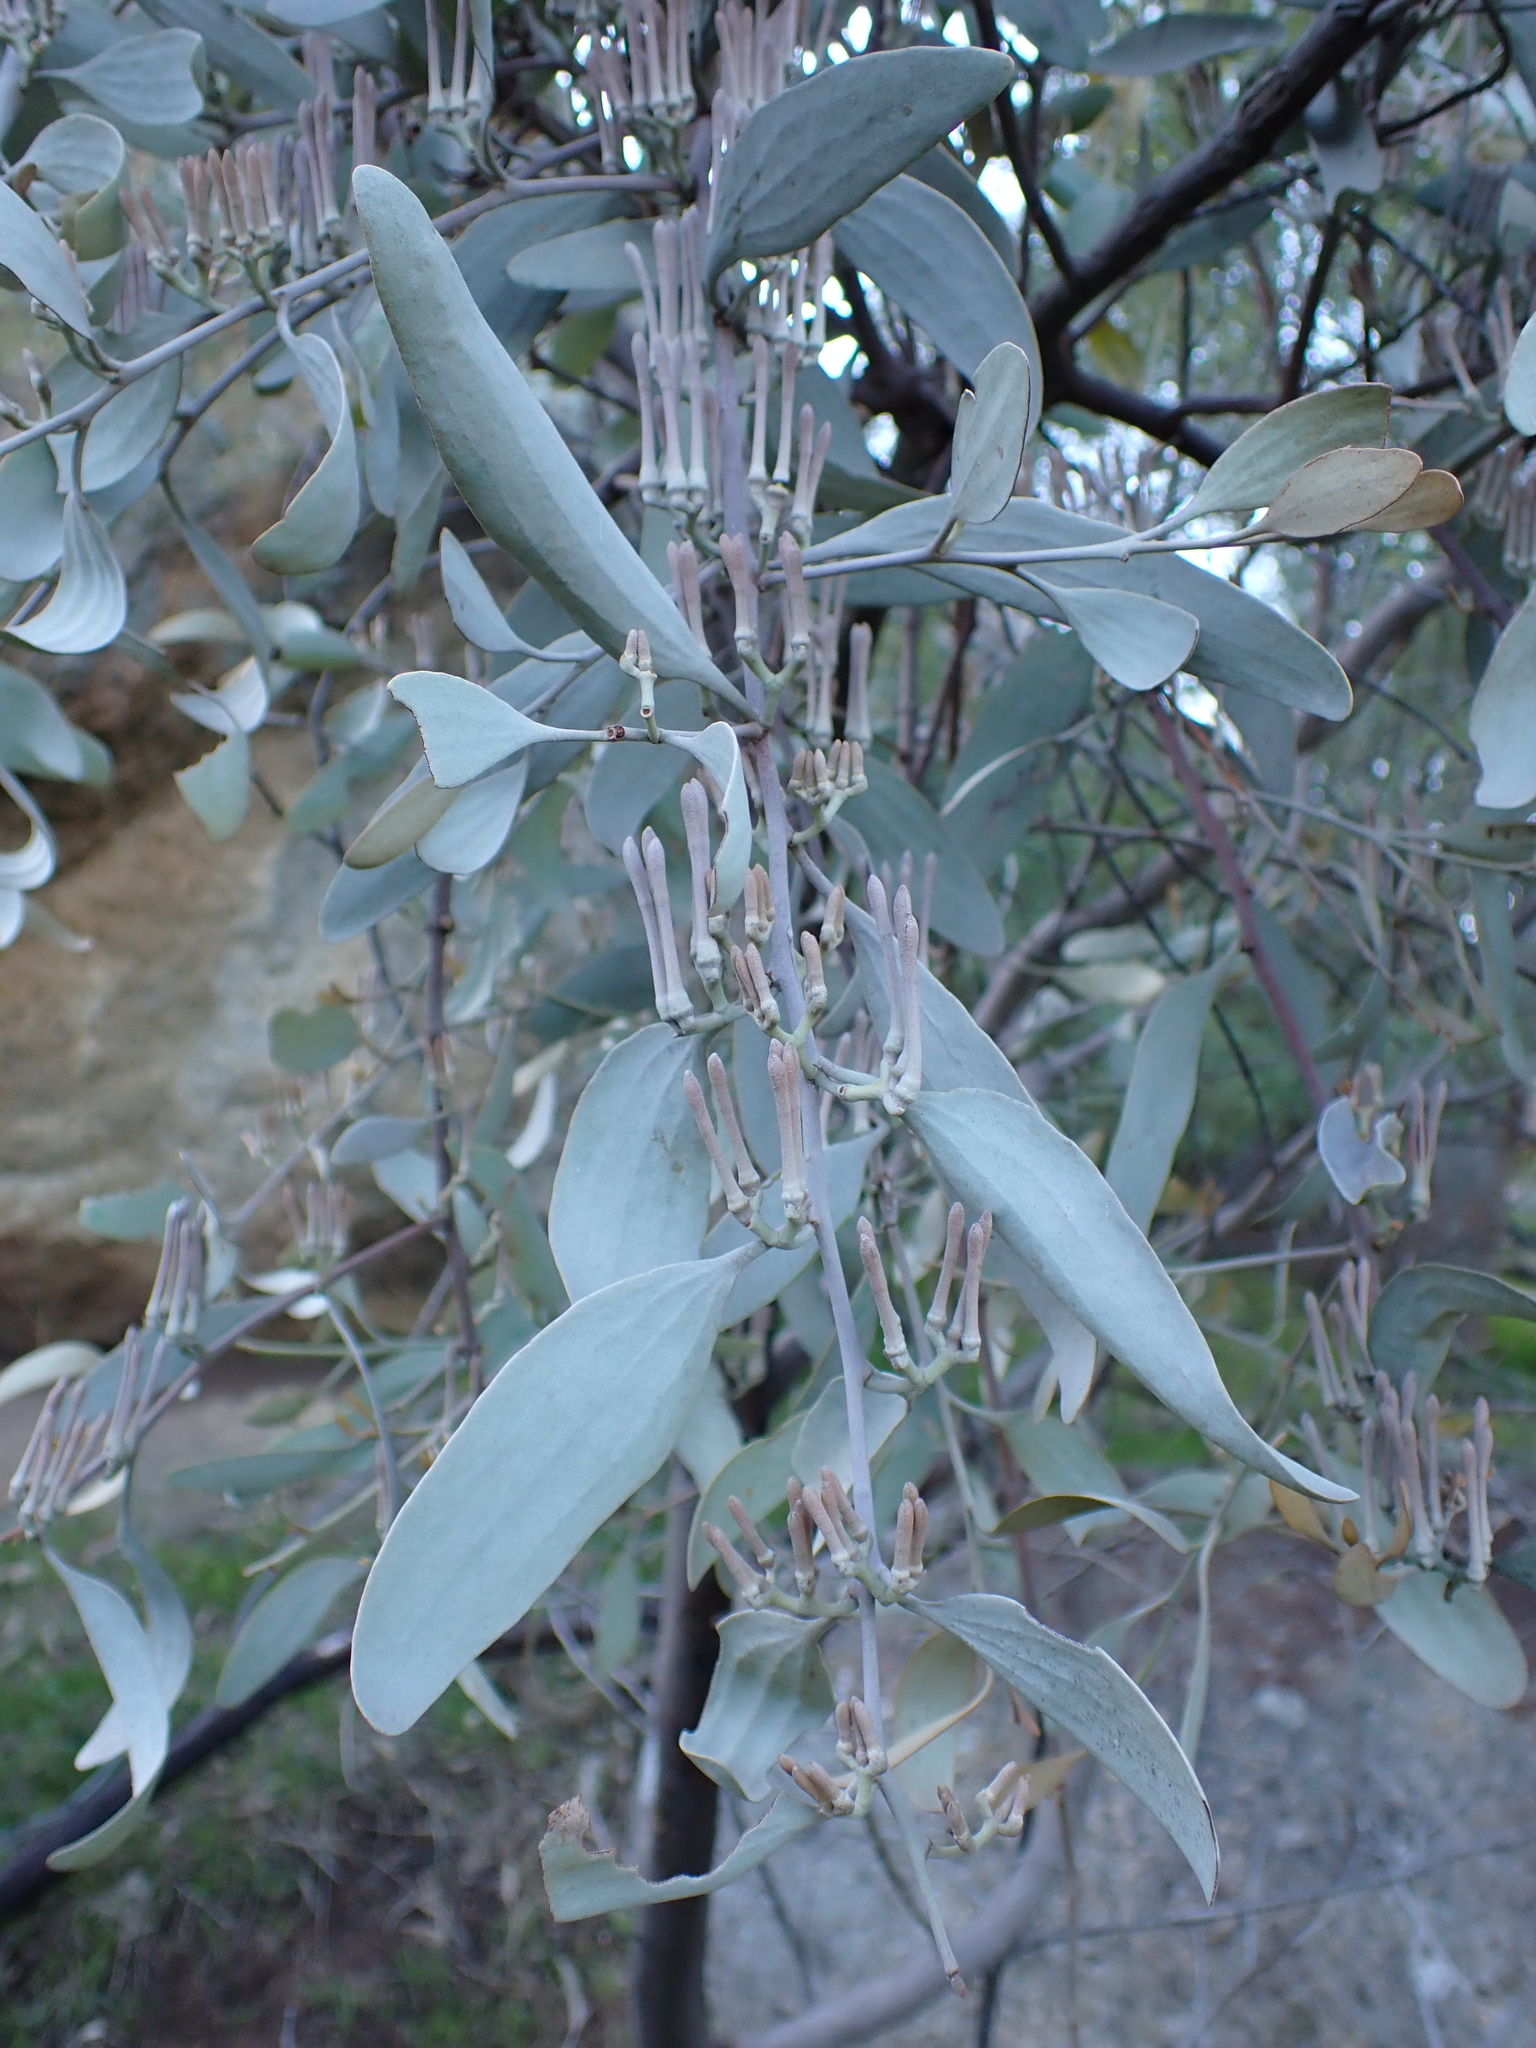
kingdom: Plantae
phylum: Tracheophyta
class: Magnoliopsida
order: Santalales
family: Loranthaceae
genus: Amyema
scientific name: Amyema quandang
